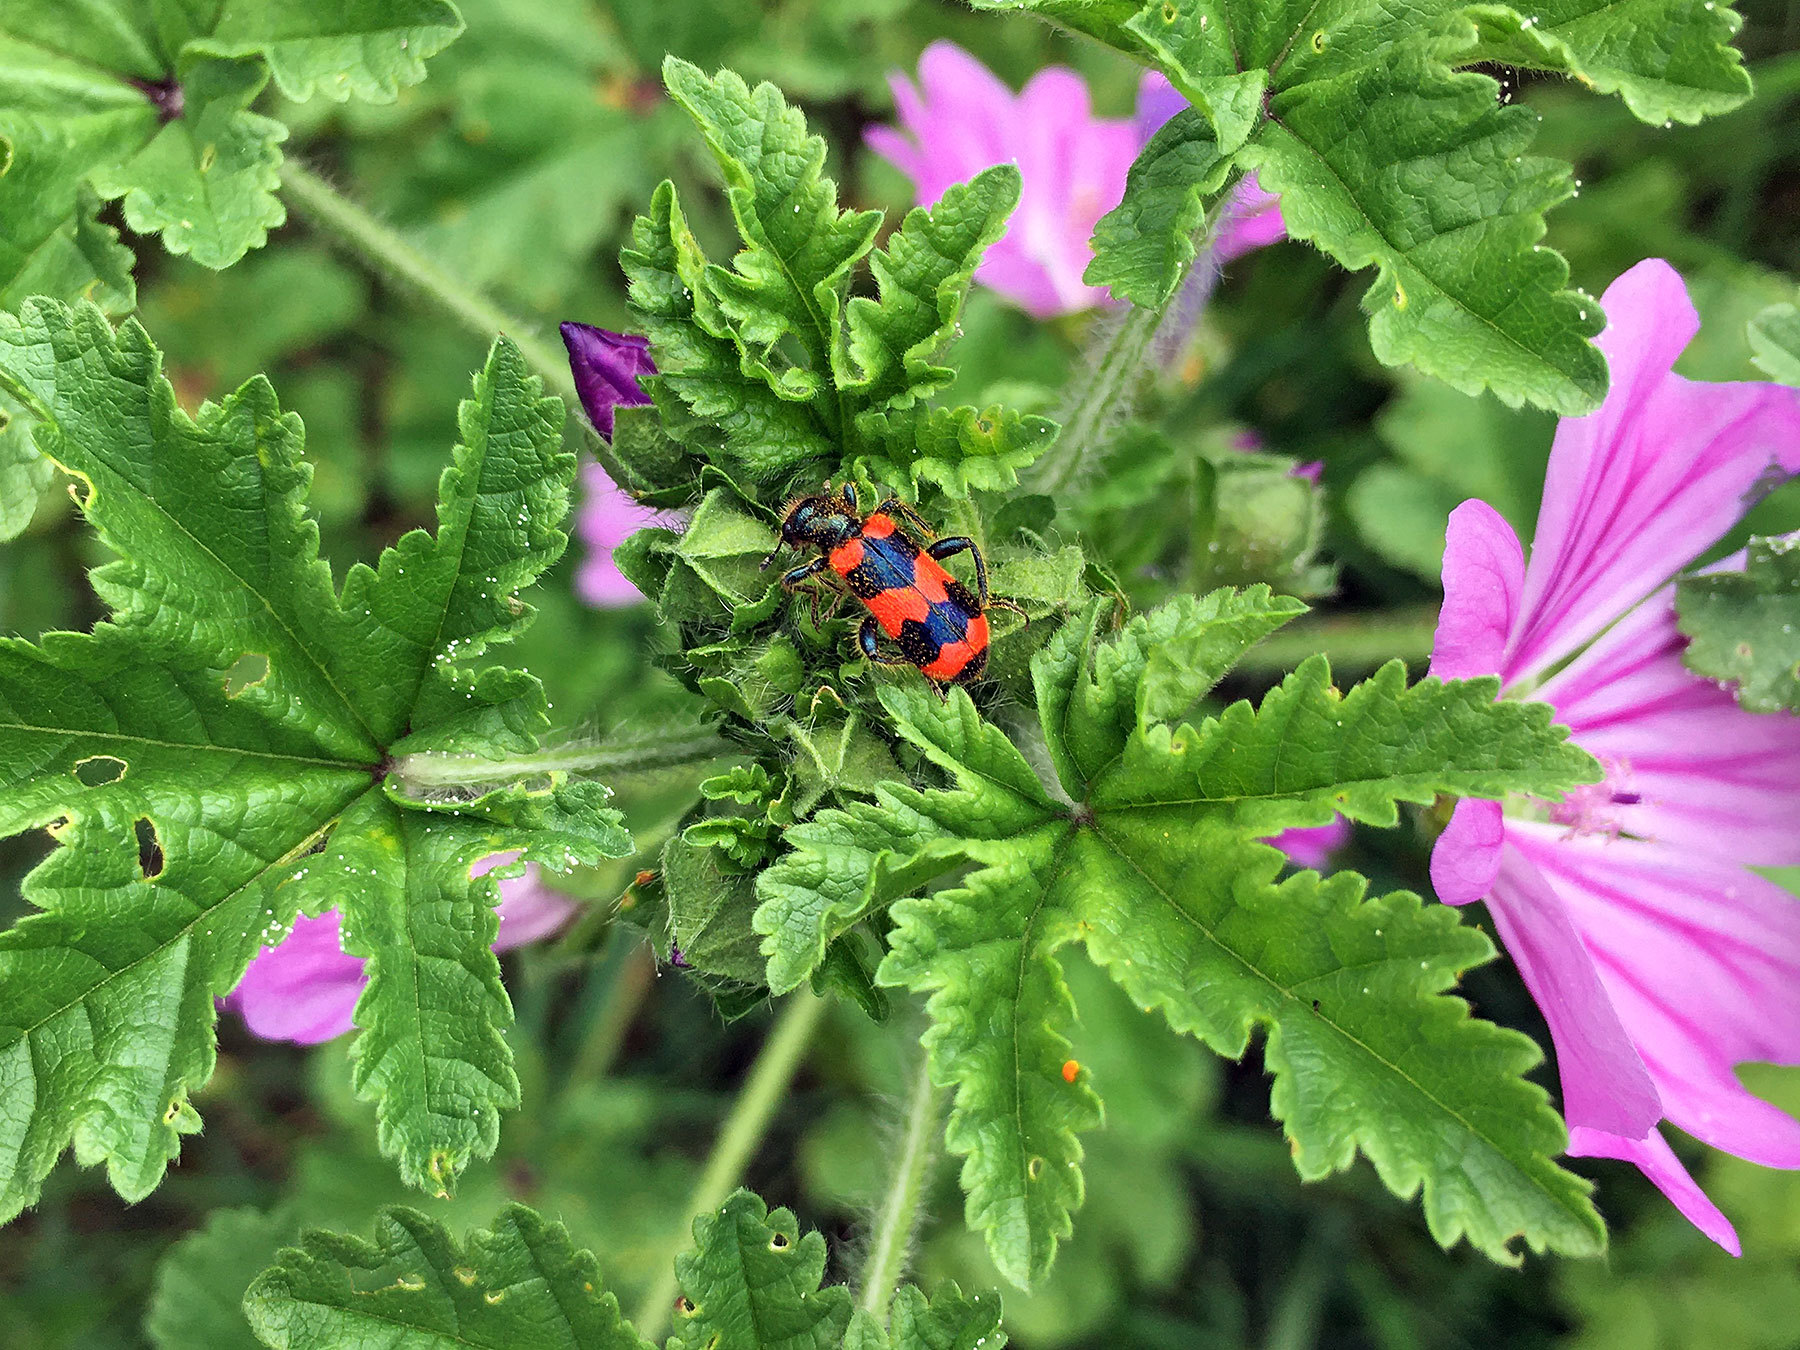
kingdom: Animalia
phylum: Arthropoda
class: Insecta
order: Coleoptera
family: Cleridae
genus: Trichodes
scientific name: Trichodes apiarius
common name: Bee-eating beetle
